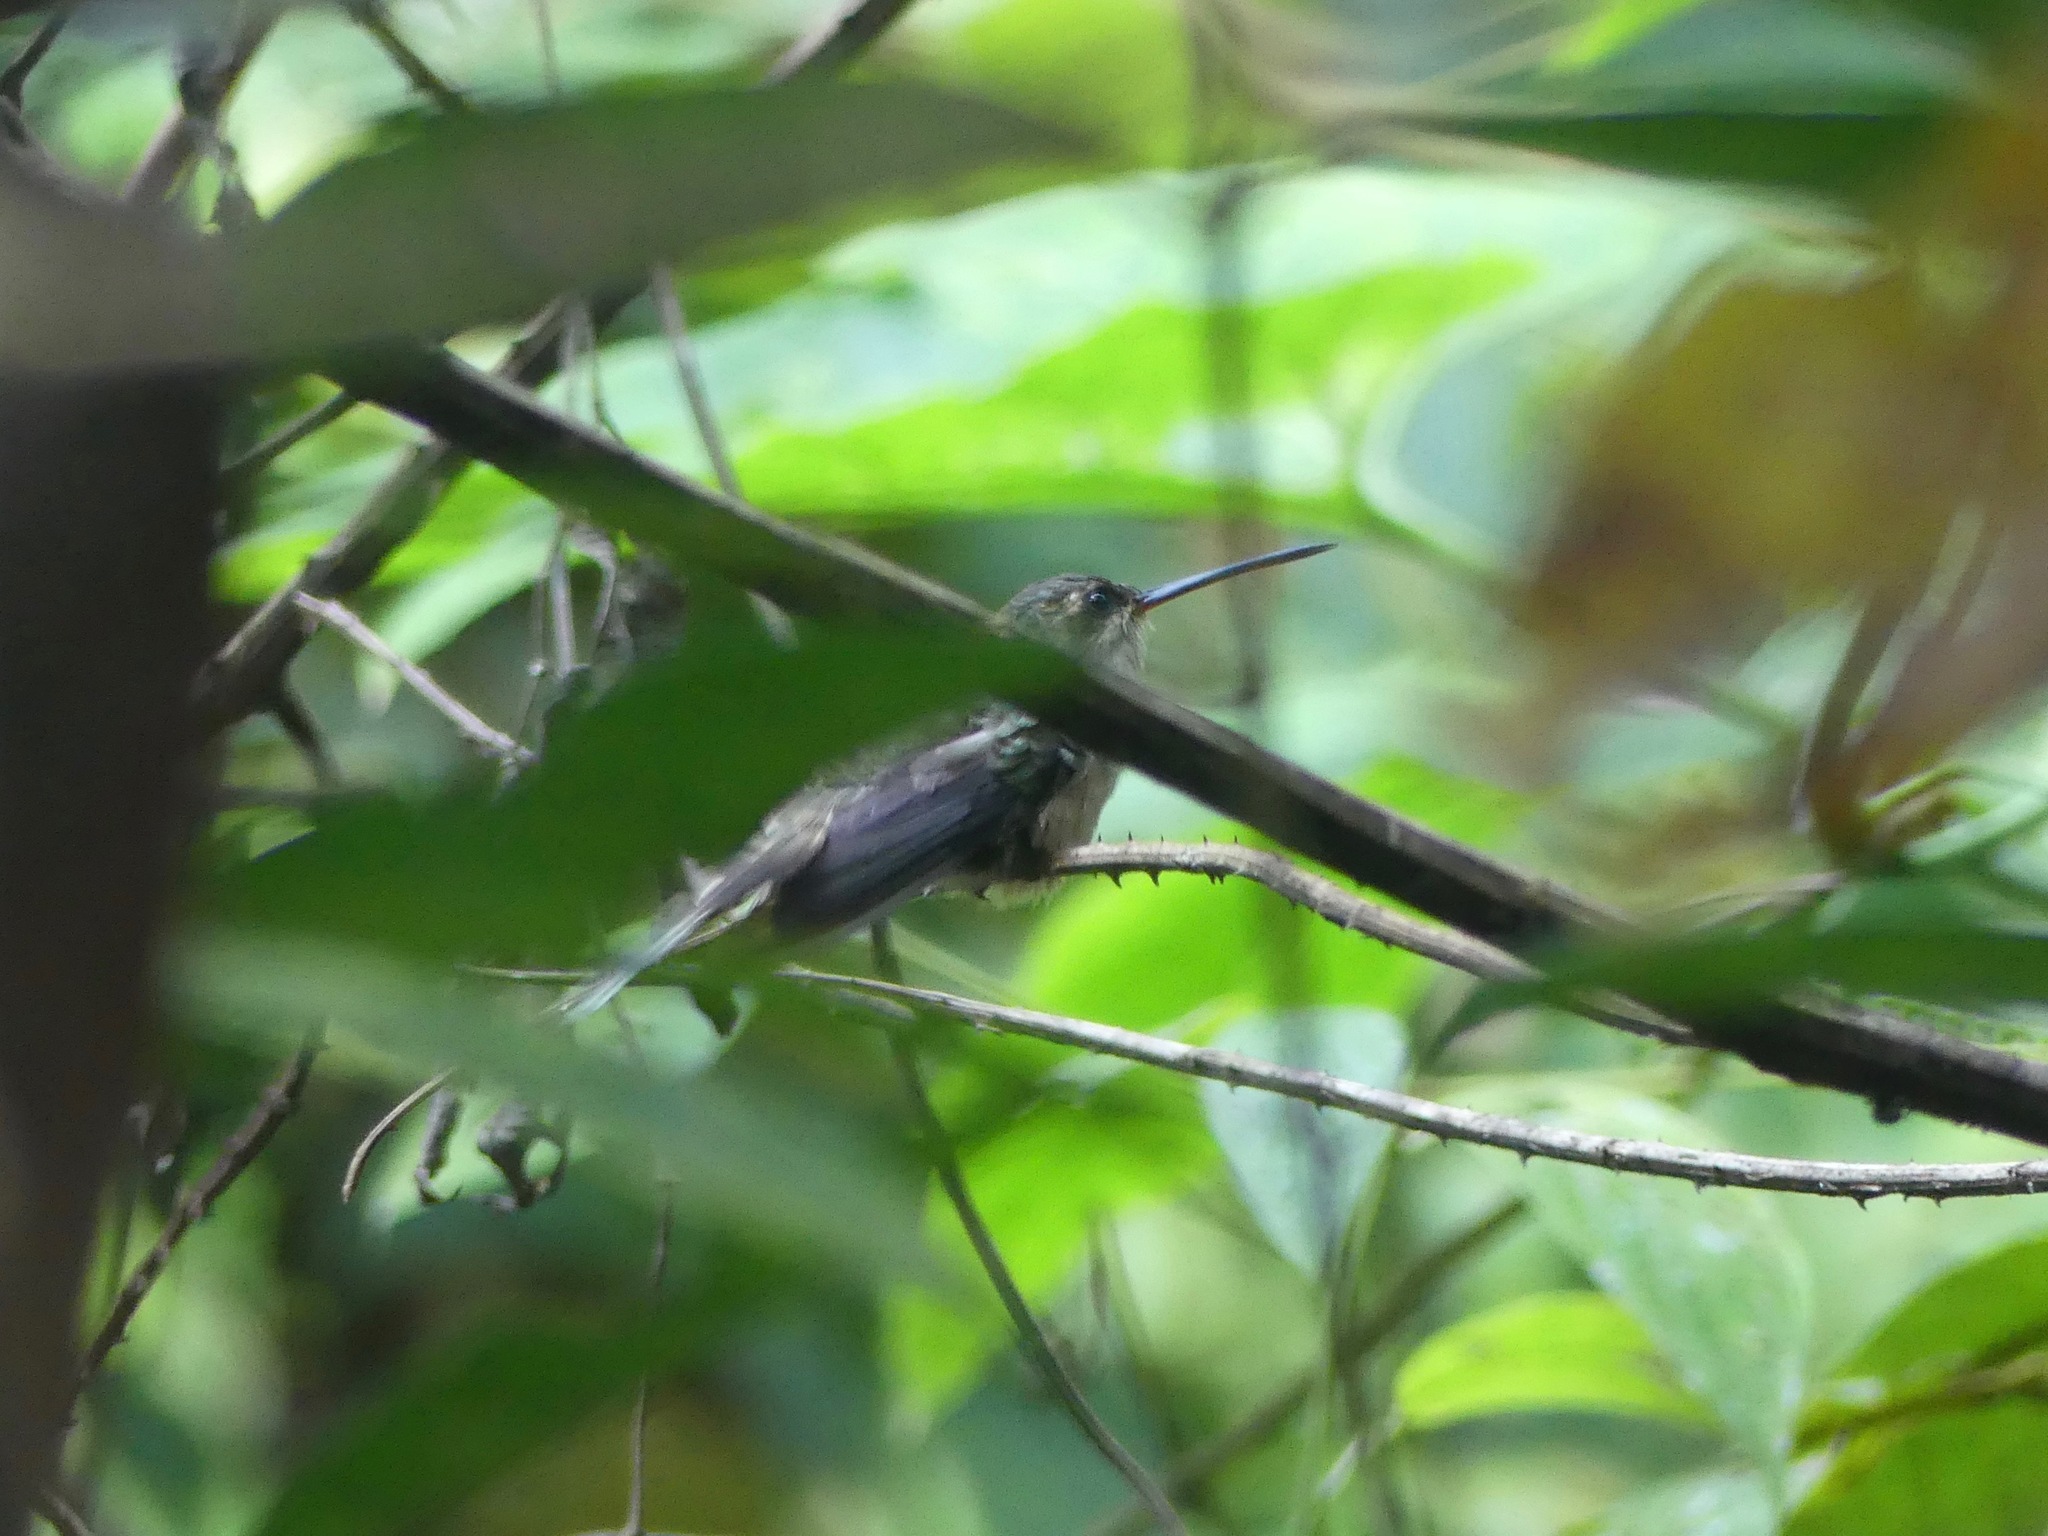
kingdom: Animalia
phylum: Chordata
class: Aves
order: Apodiformes
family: Trochilidae
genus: Phaethornis
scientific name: Phaethornis bourcieri
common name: Straight-billed hermit
